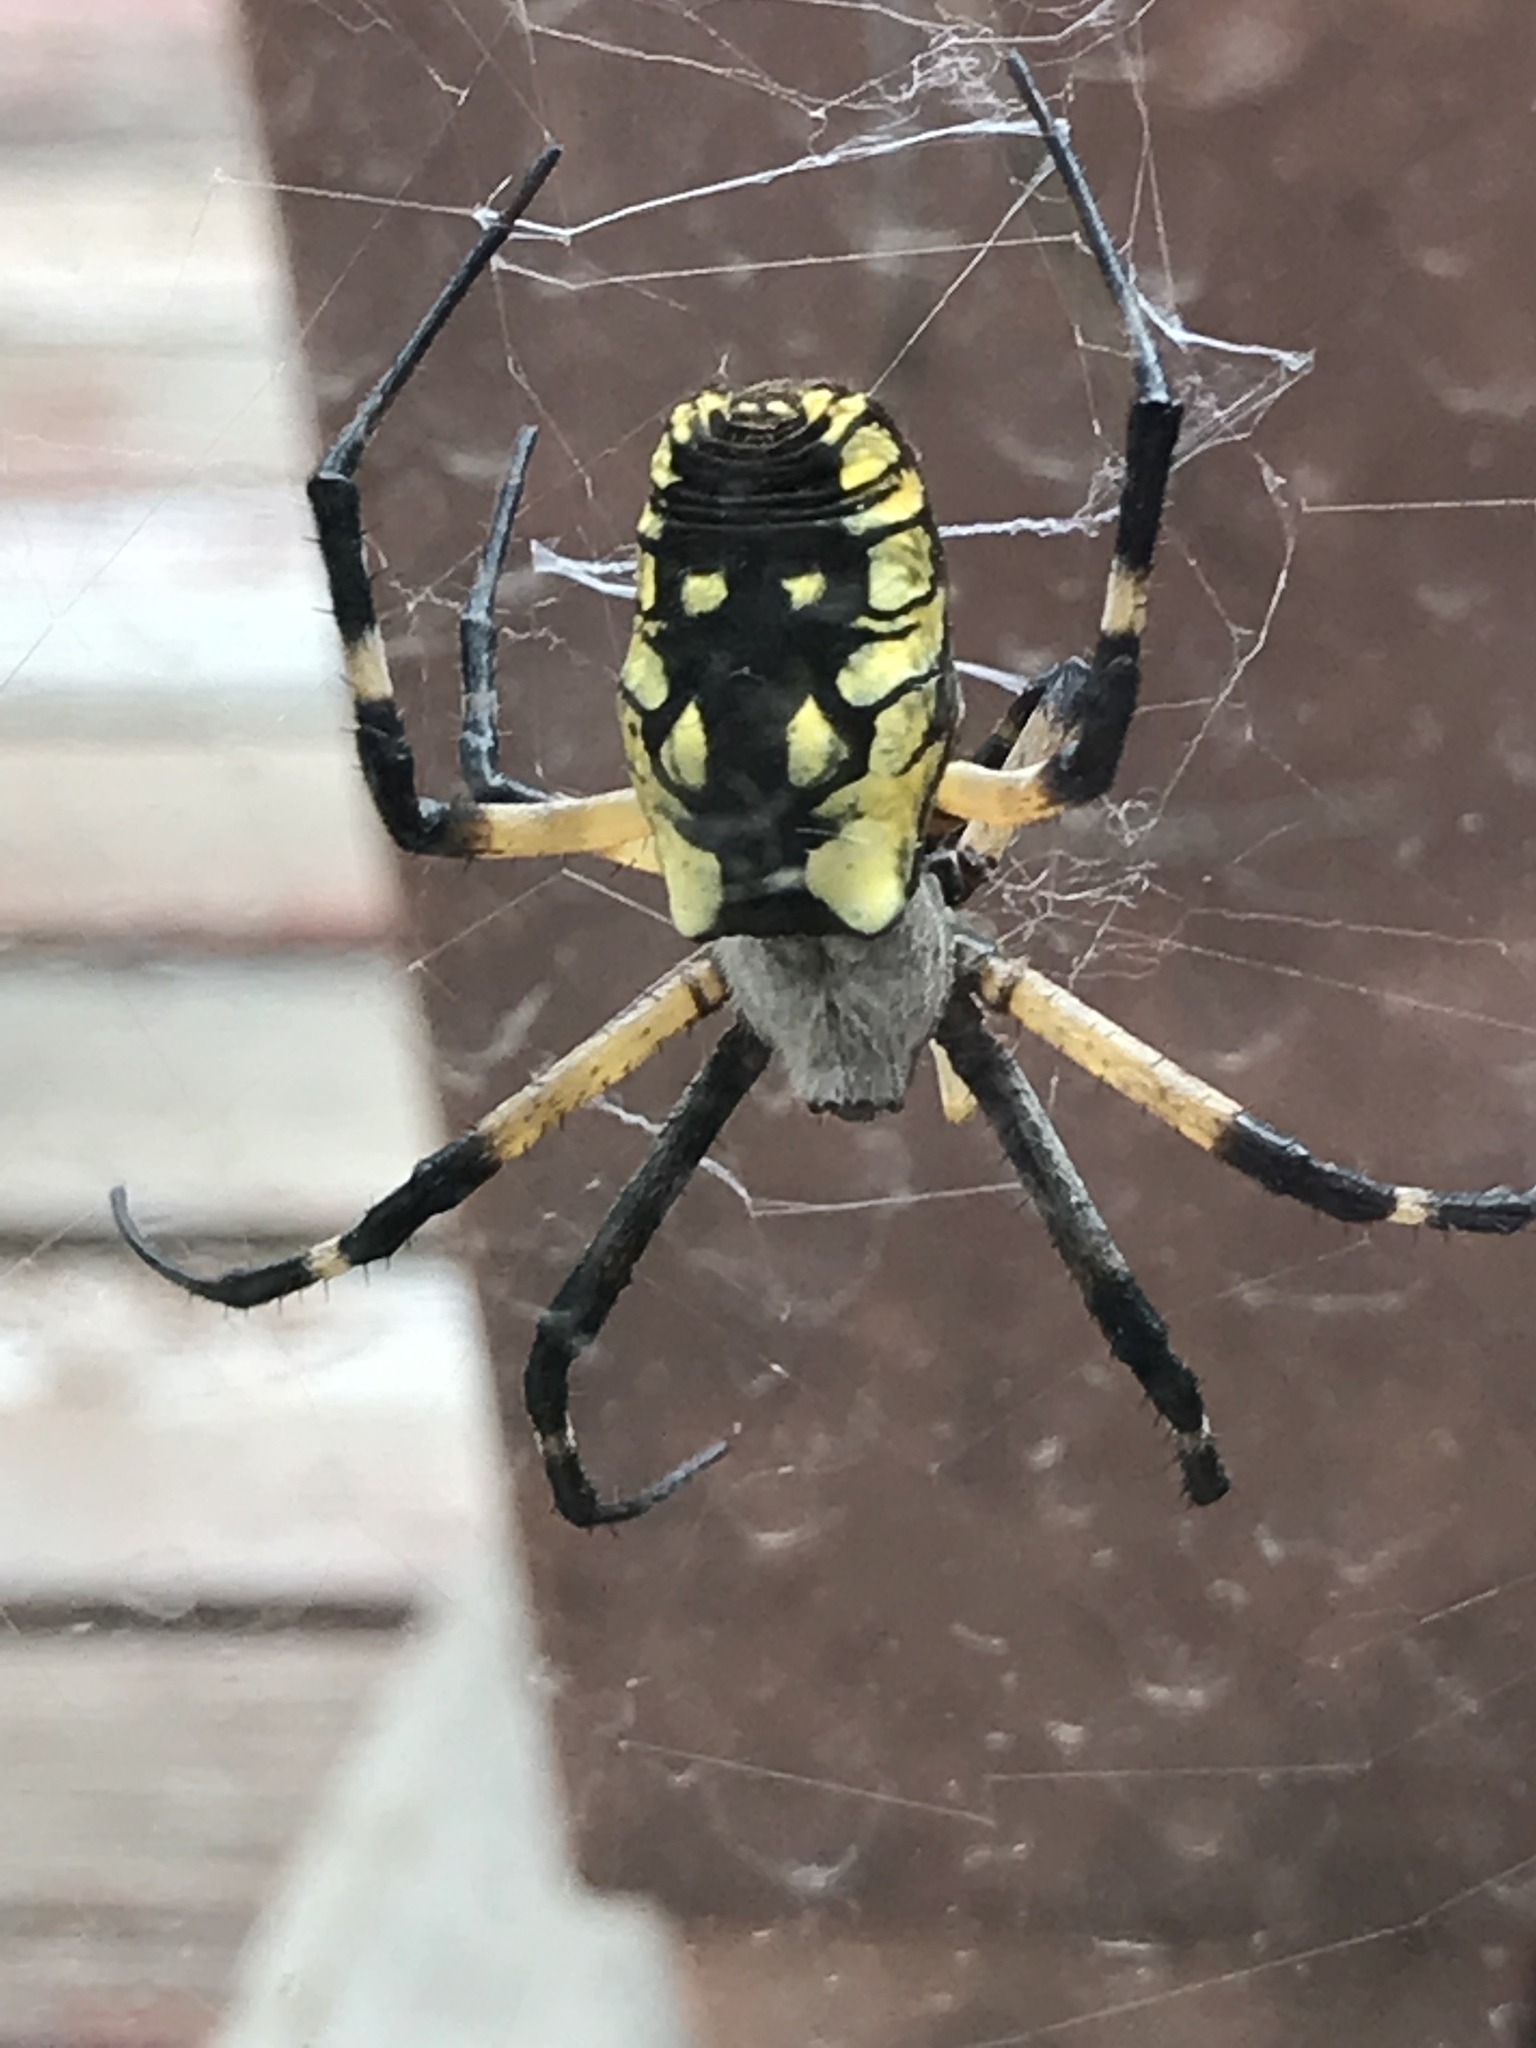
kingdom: Animalia
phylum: Arthropoda
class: Arachnida
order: Araneae
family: Araneidae
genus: Argiope
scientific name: Argiope aurantia
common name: Orb weavers
